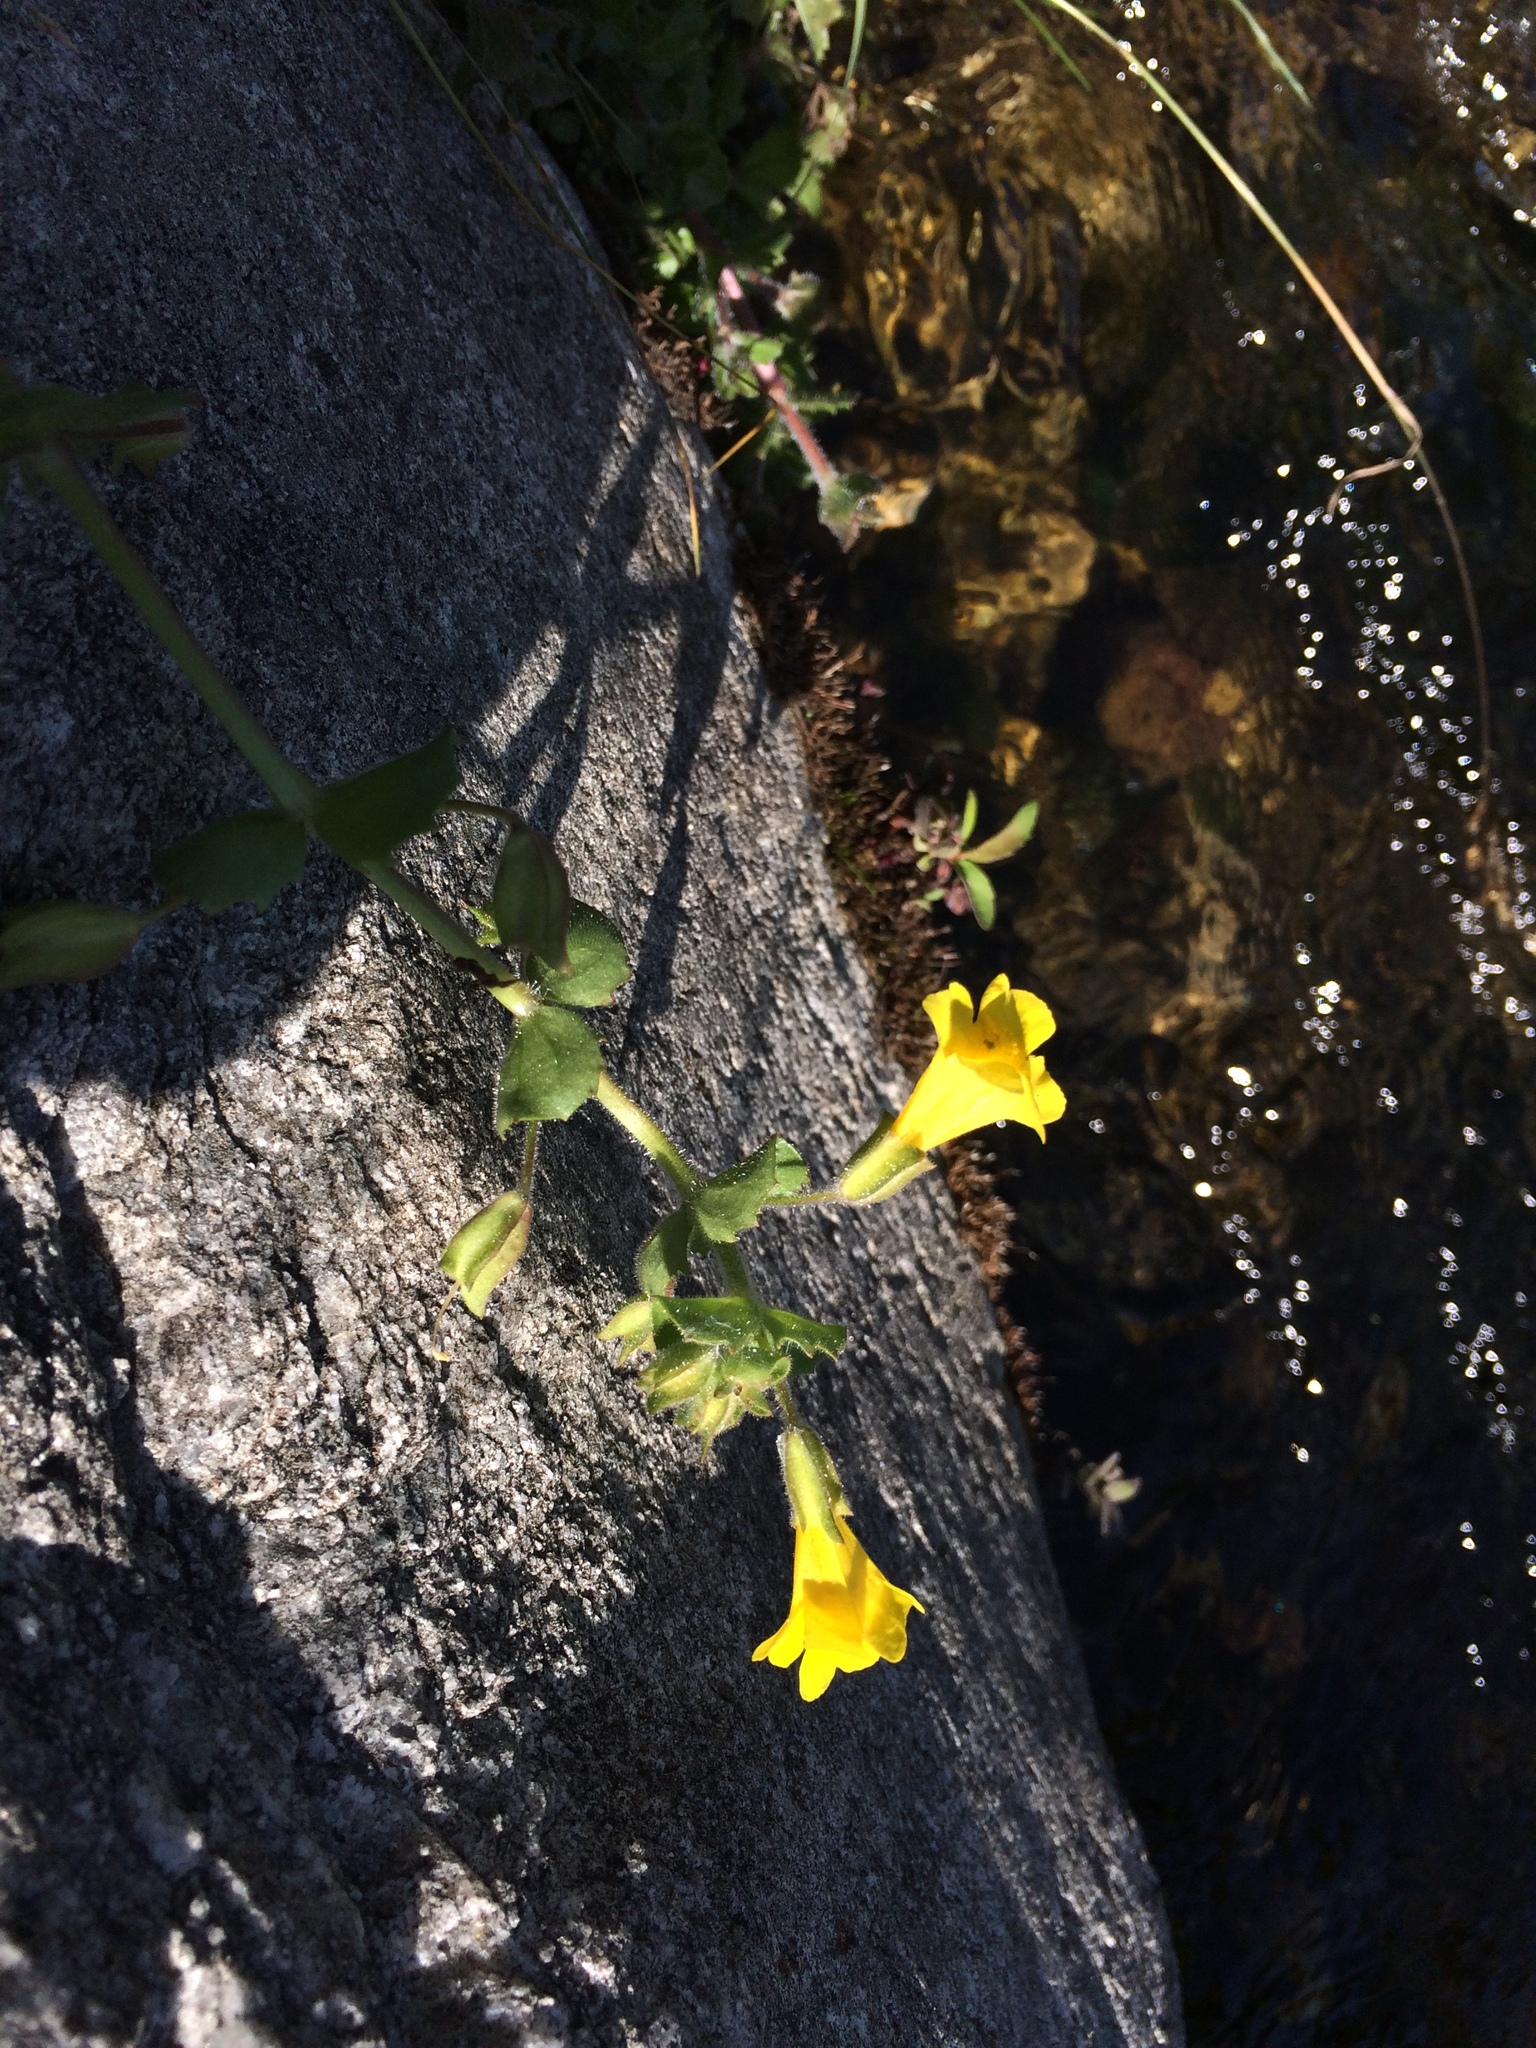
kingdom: Plantae
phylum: Tracheophyta
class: Magnoliopsida
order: Lamiales
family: Phrymaceae
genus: Erythranthe
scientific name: Erythranthe michiganensis
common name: Michigan monkey-flower
